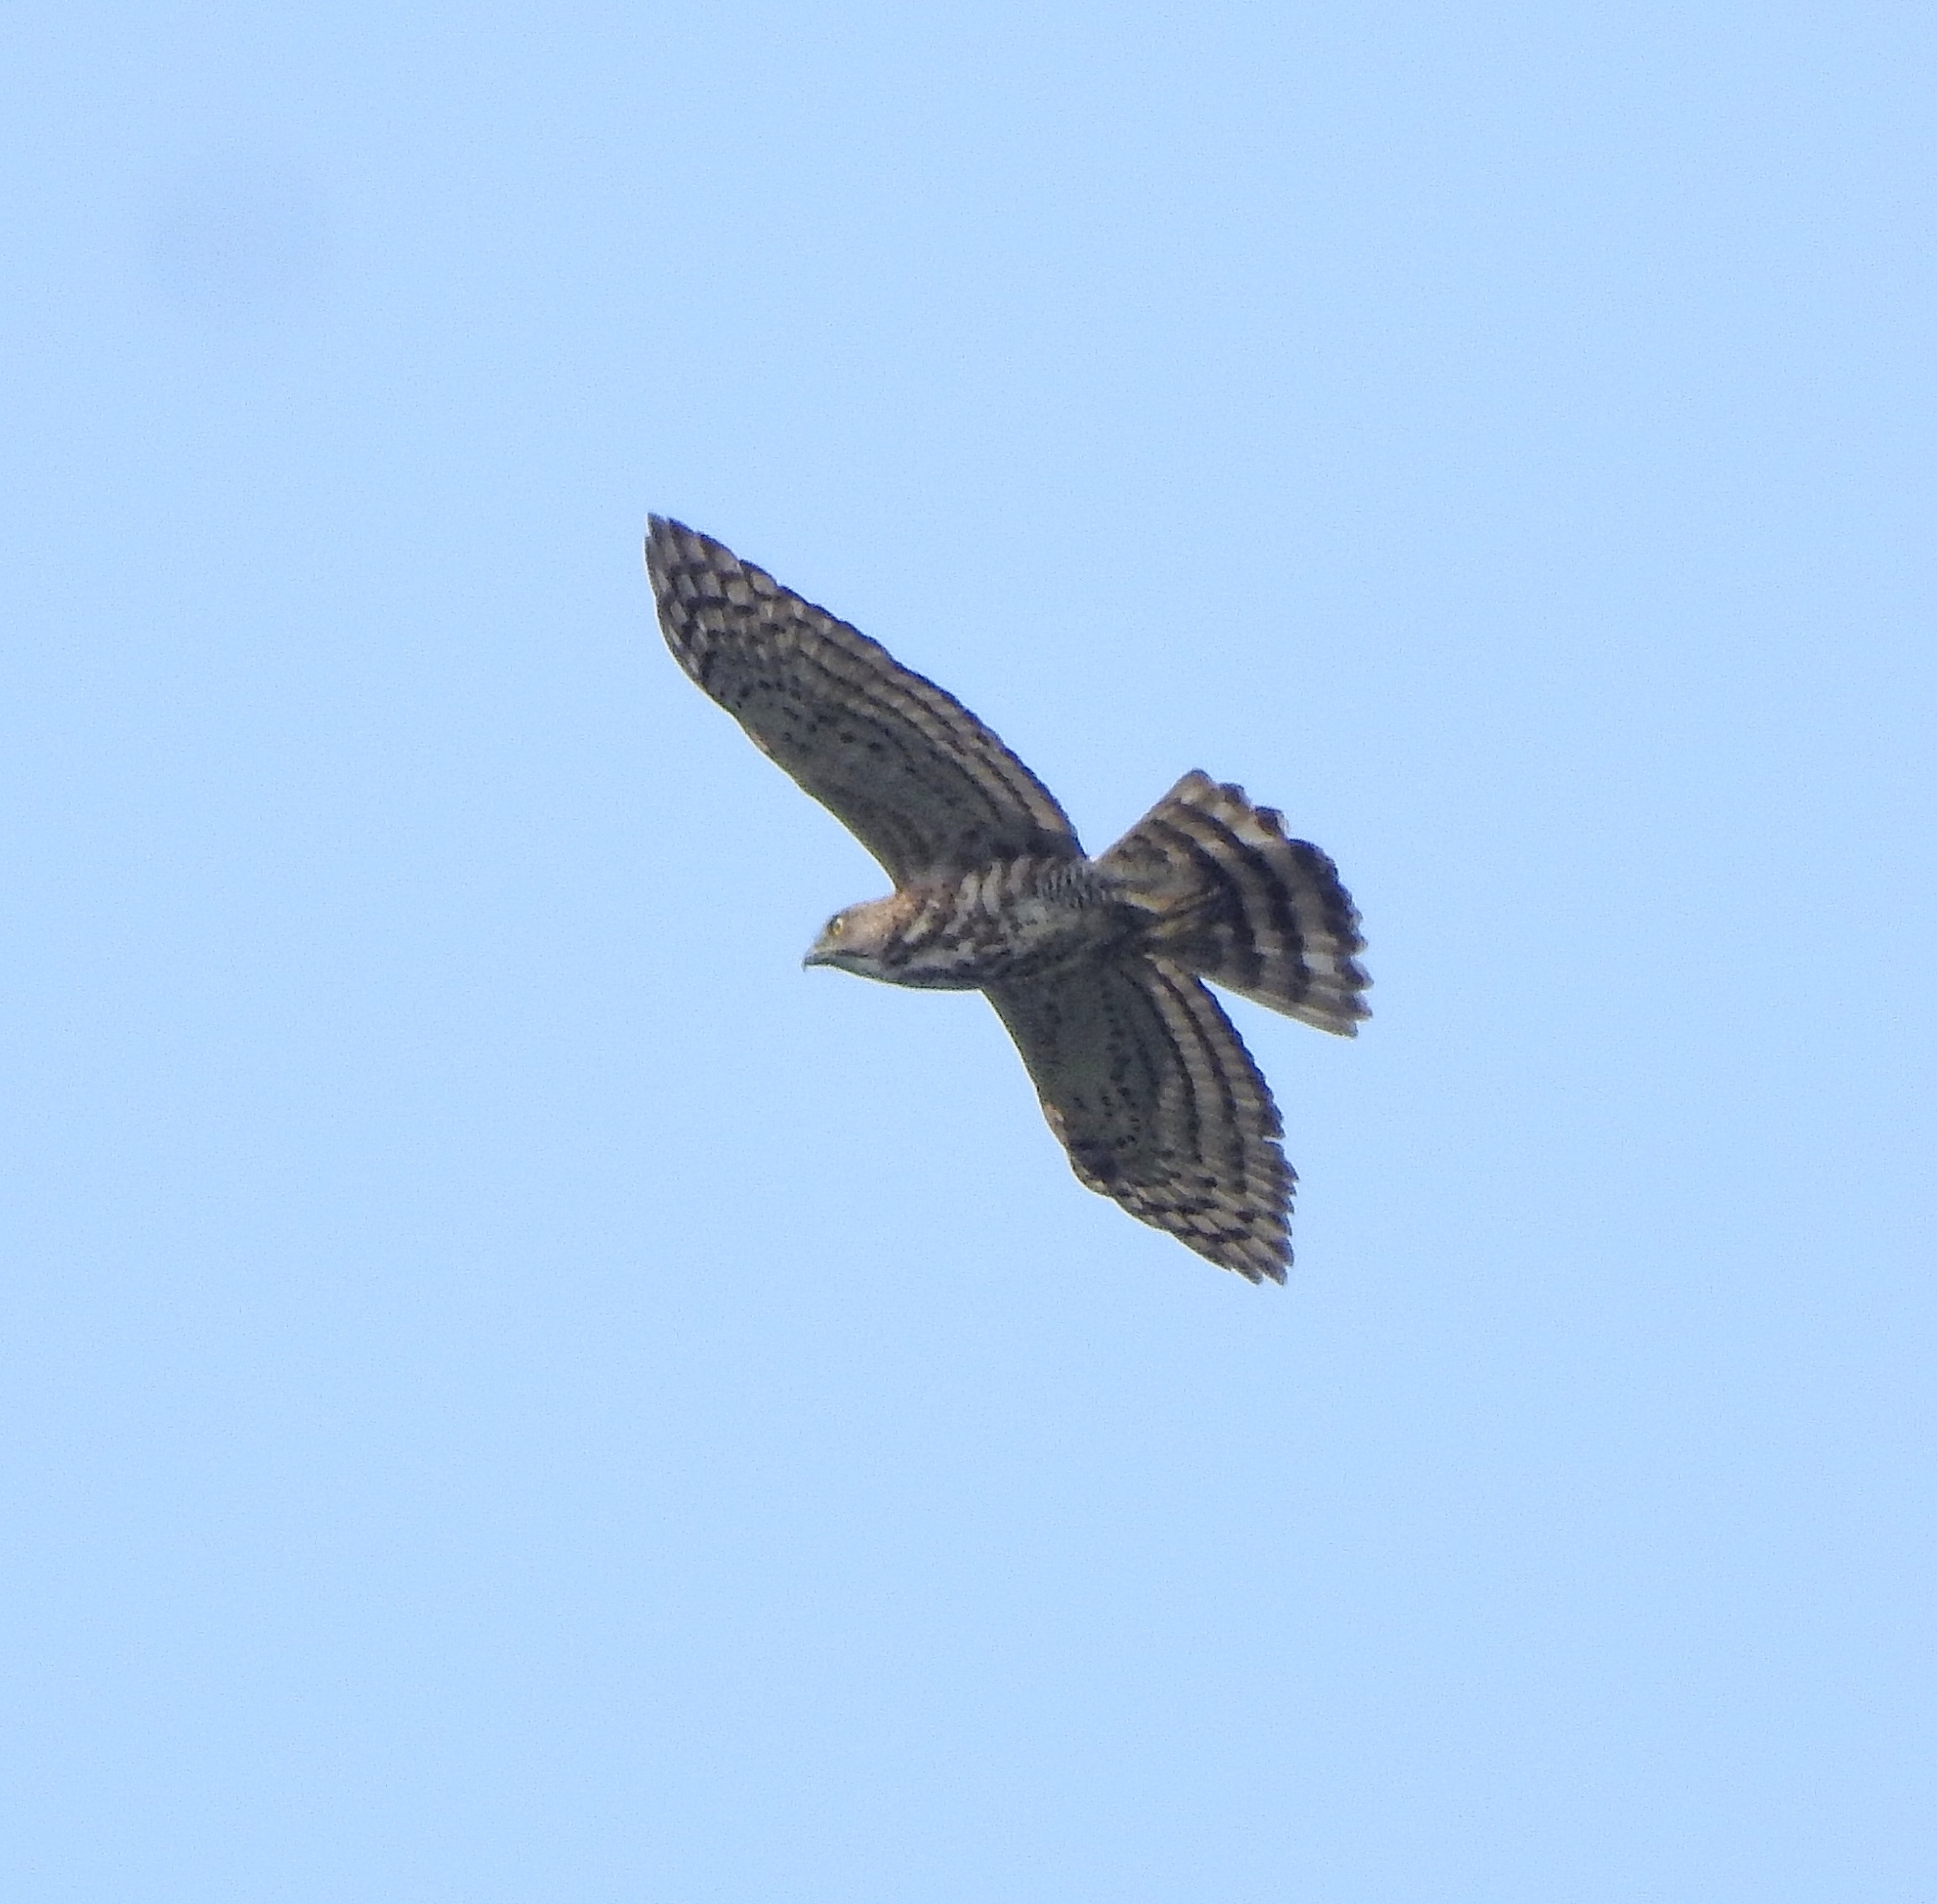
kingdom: Animalia
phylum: Chordata
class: Aves
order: Accipitriformes
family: Accipitridae
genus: Accipiter
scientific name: Accipiter trivirgatus
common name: Crested goshawk
